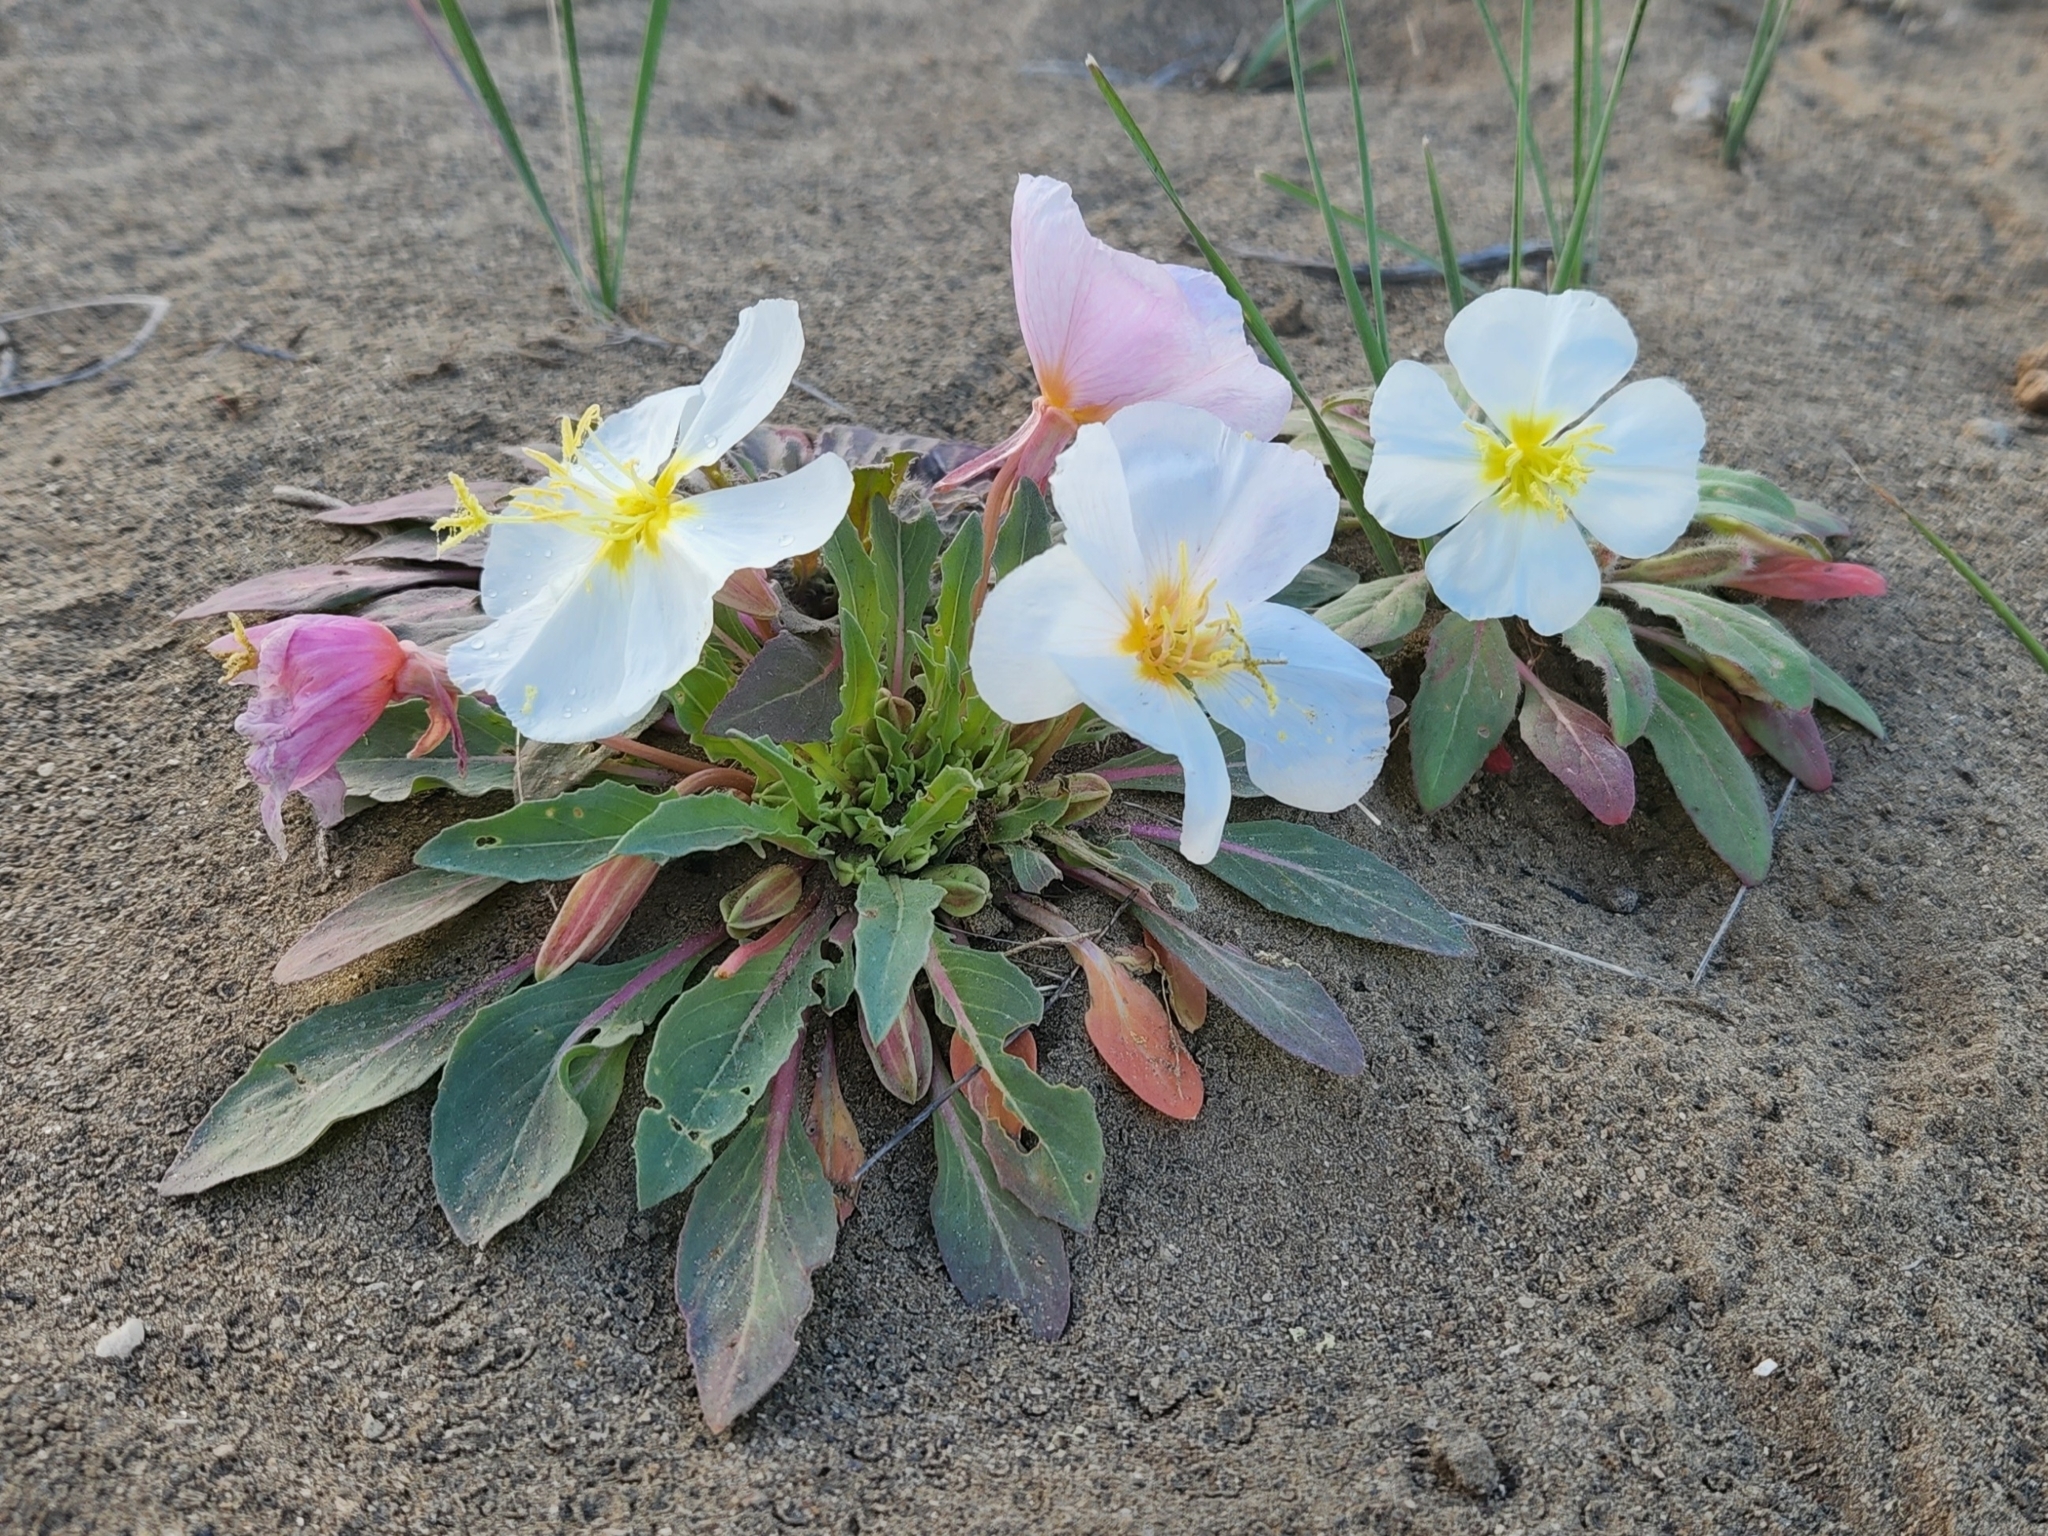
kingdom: Plantae
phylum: Tracheophyta
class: Magnoliopsida
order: Myrtales
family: Onagraceae
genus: Oenothera
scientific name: Oenothera cespitosa
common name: Tufted evening-primrose
